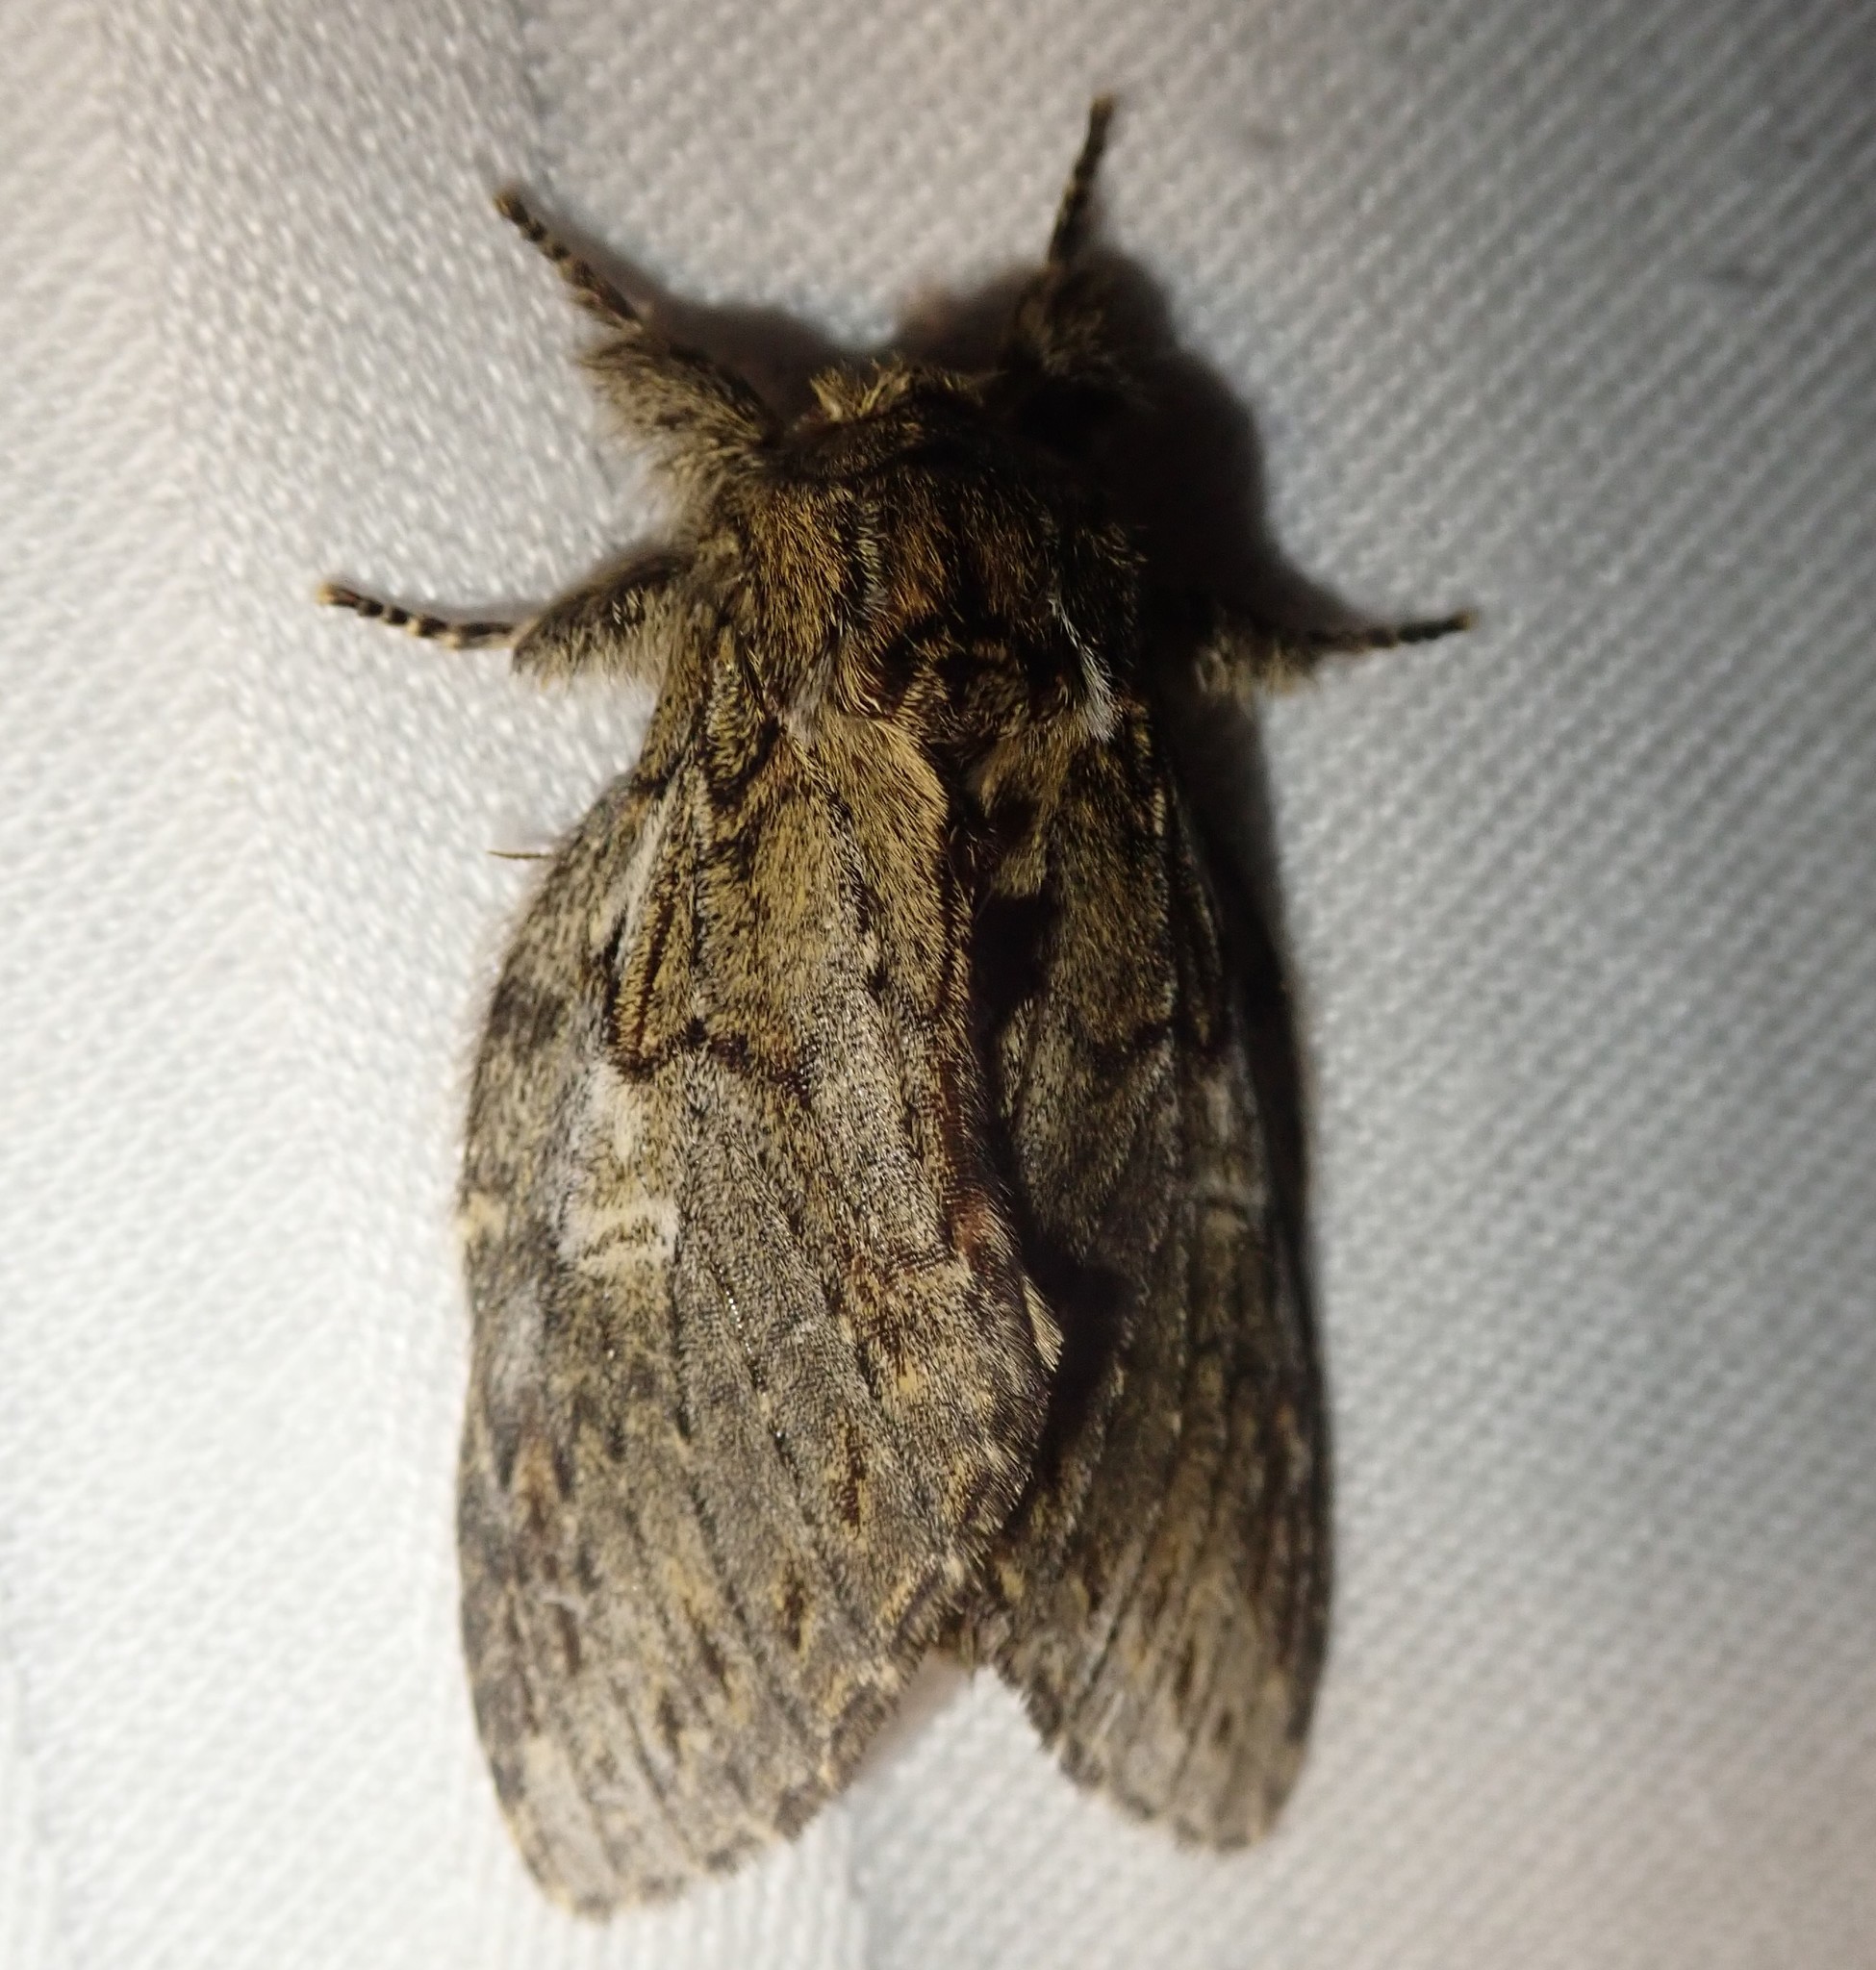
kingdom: Animalia
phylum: Arthropoda
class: Insecta
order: Lepidoptera
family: Notodontidae
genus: Peridea
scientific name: Peridea anceps
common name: Great prominent
